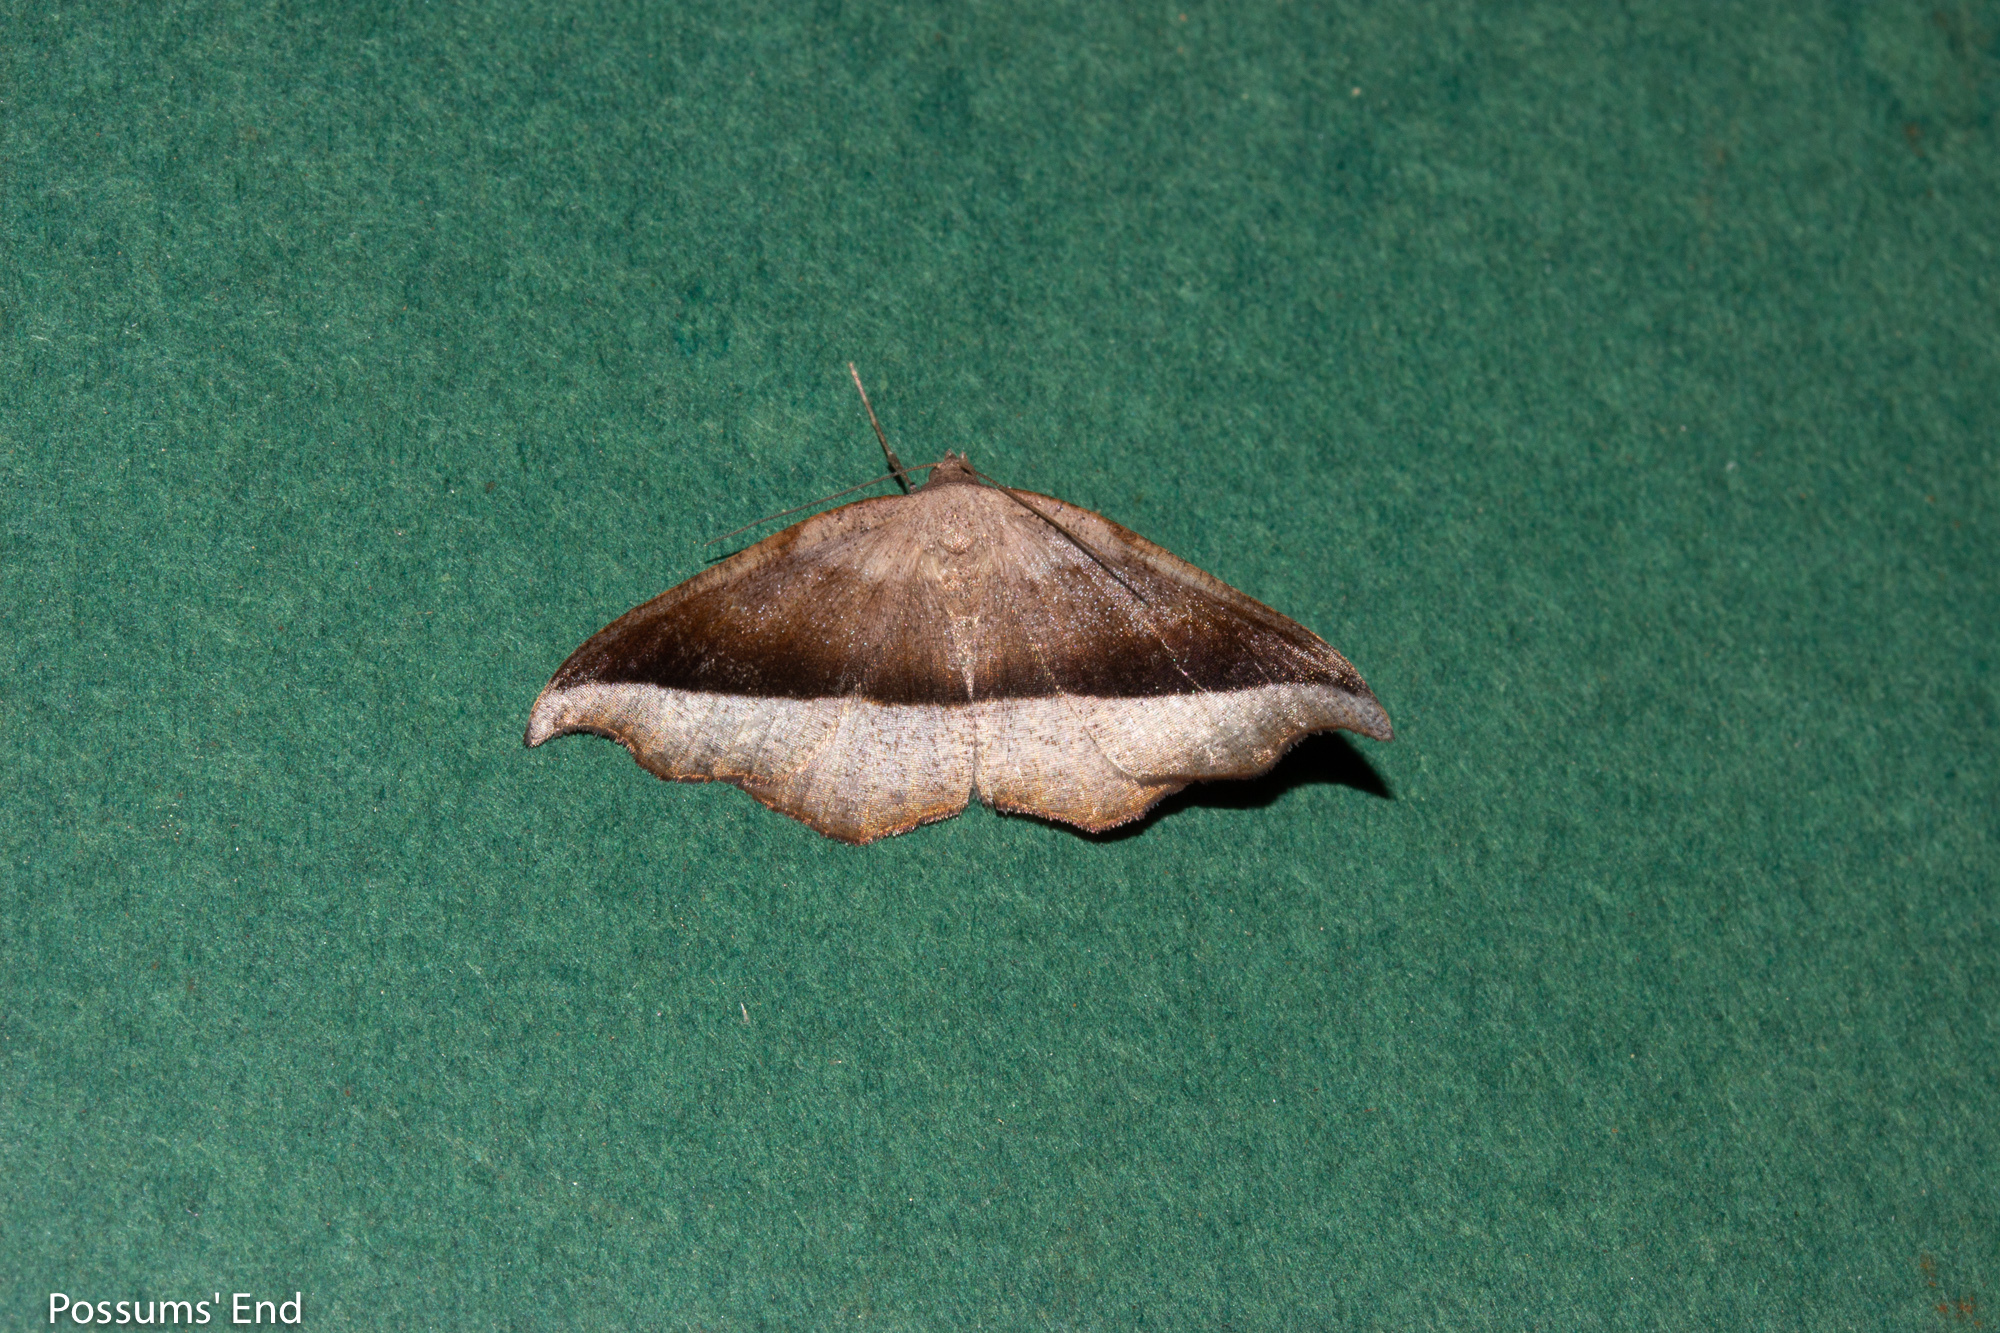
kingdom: Animalia
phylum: Arthropoda
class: Insecta
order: Lepidoptera
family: Geometridae
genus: Sarisa
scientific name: Sarisa muriferata
